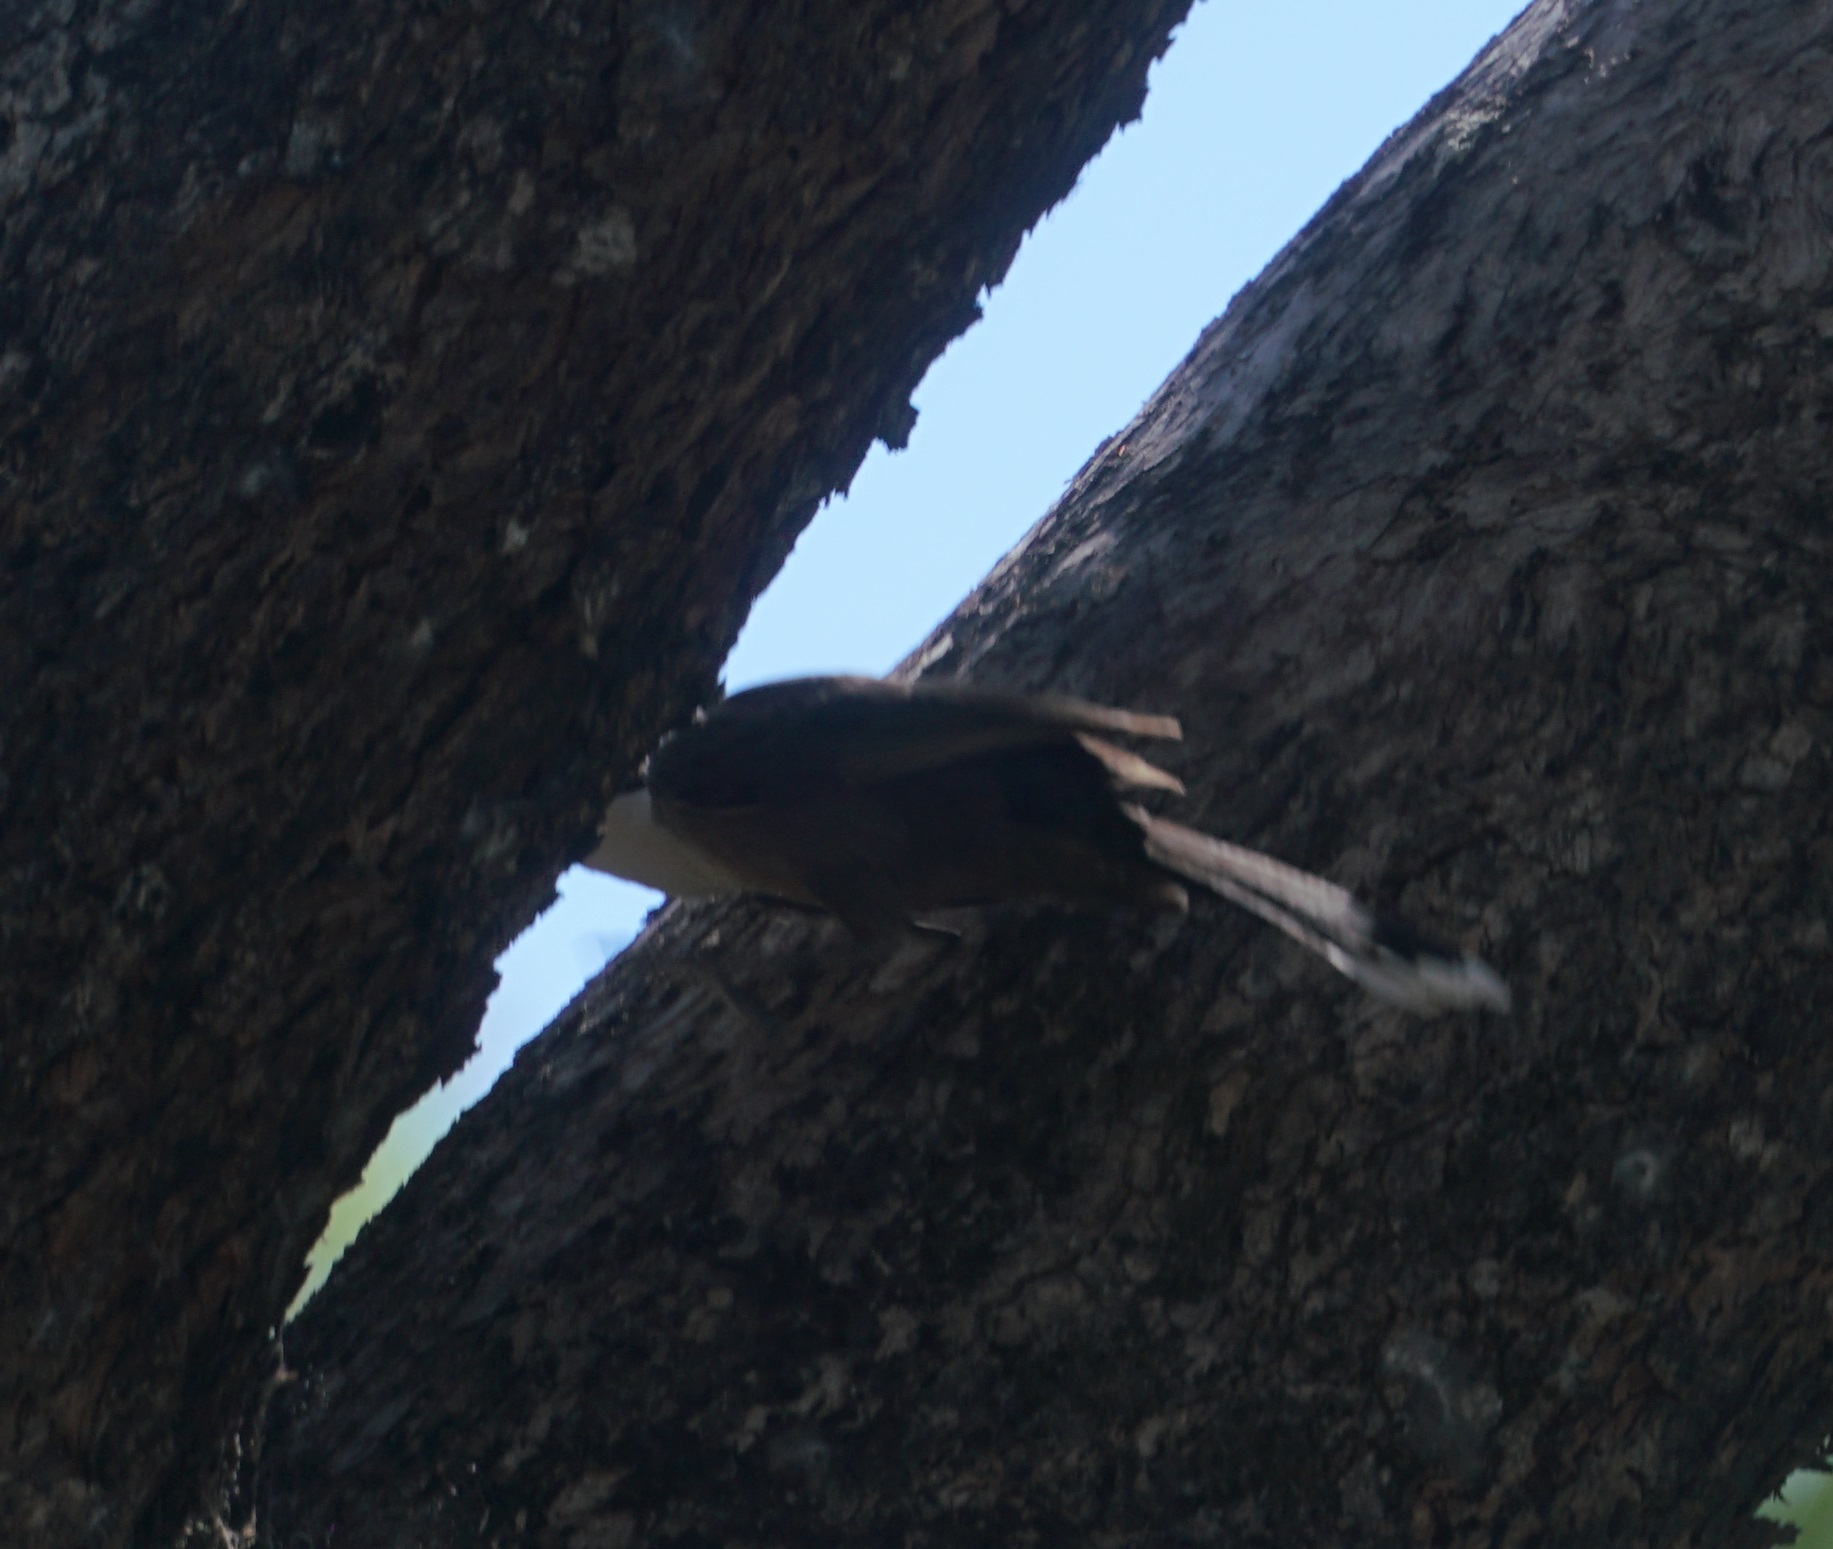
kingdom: Animalia
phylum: Chordata
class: Aves
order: Passeriformes
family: Pomatostomidae
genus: Pomatostomus
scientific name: Pomatostomus temporalis
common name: Grey-crowned babbler
